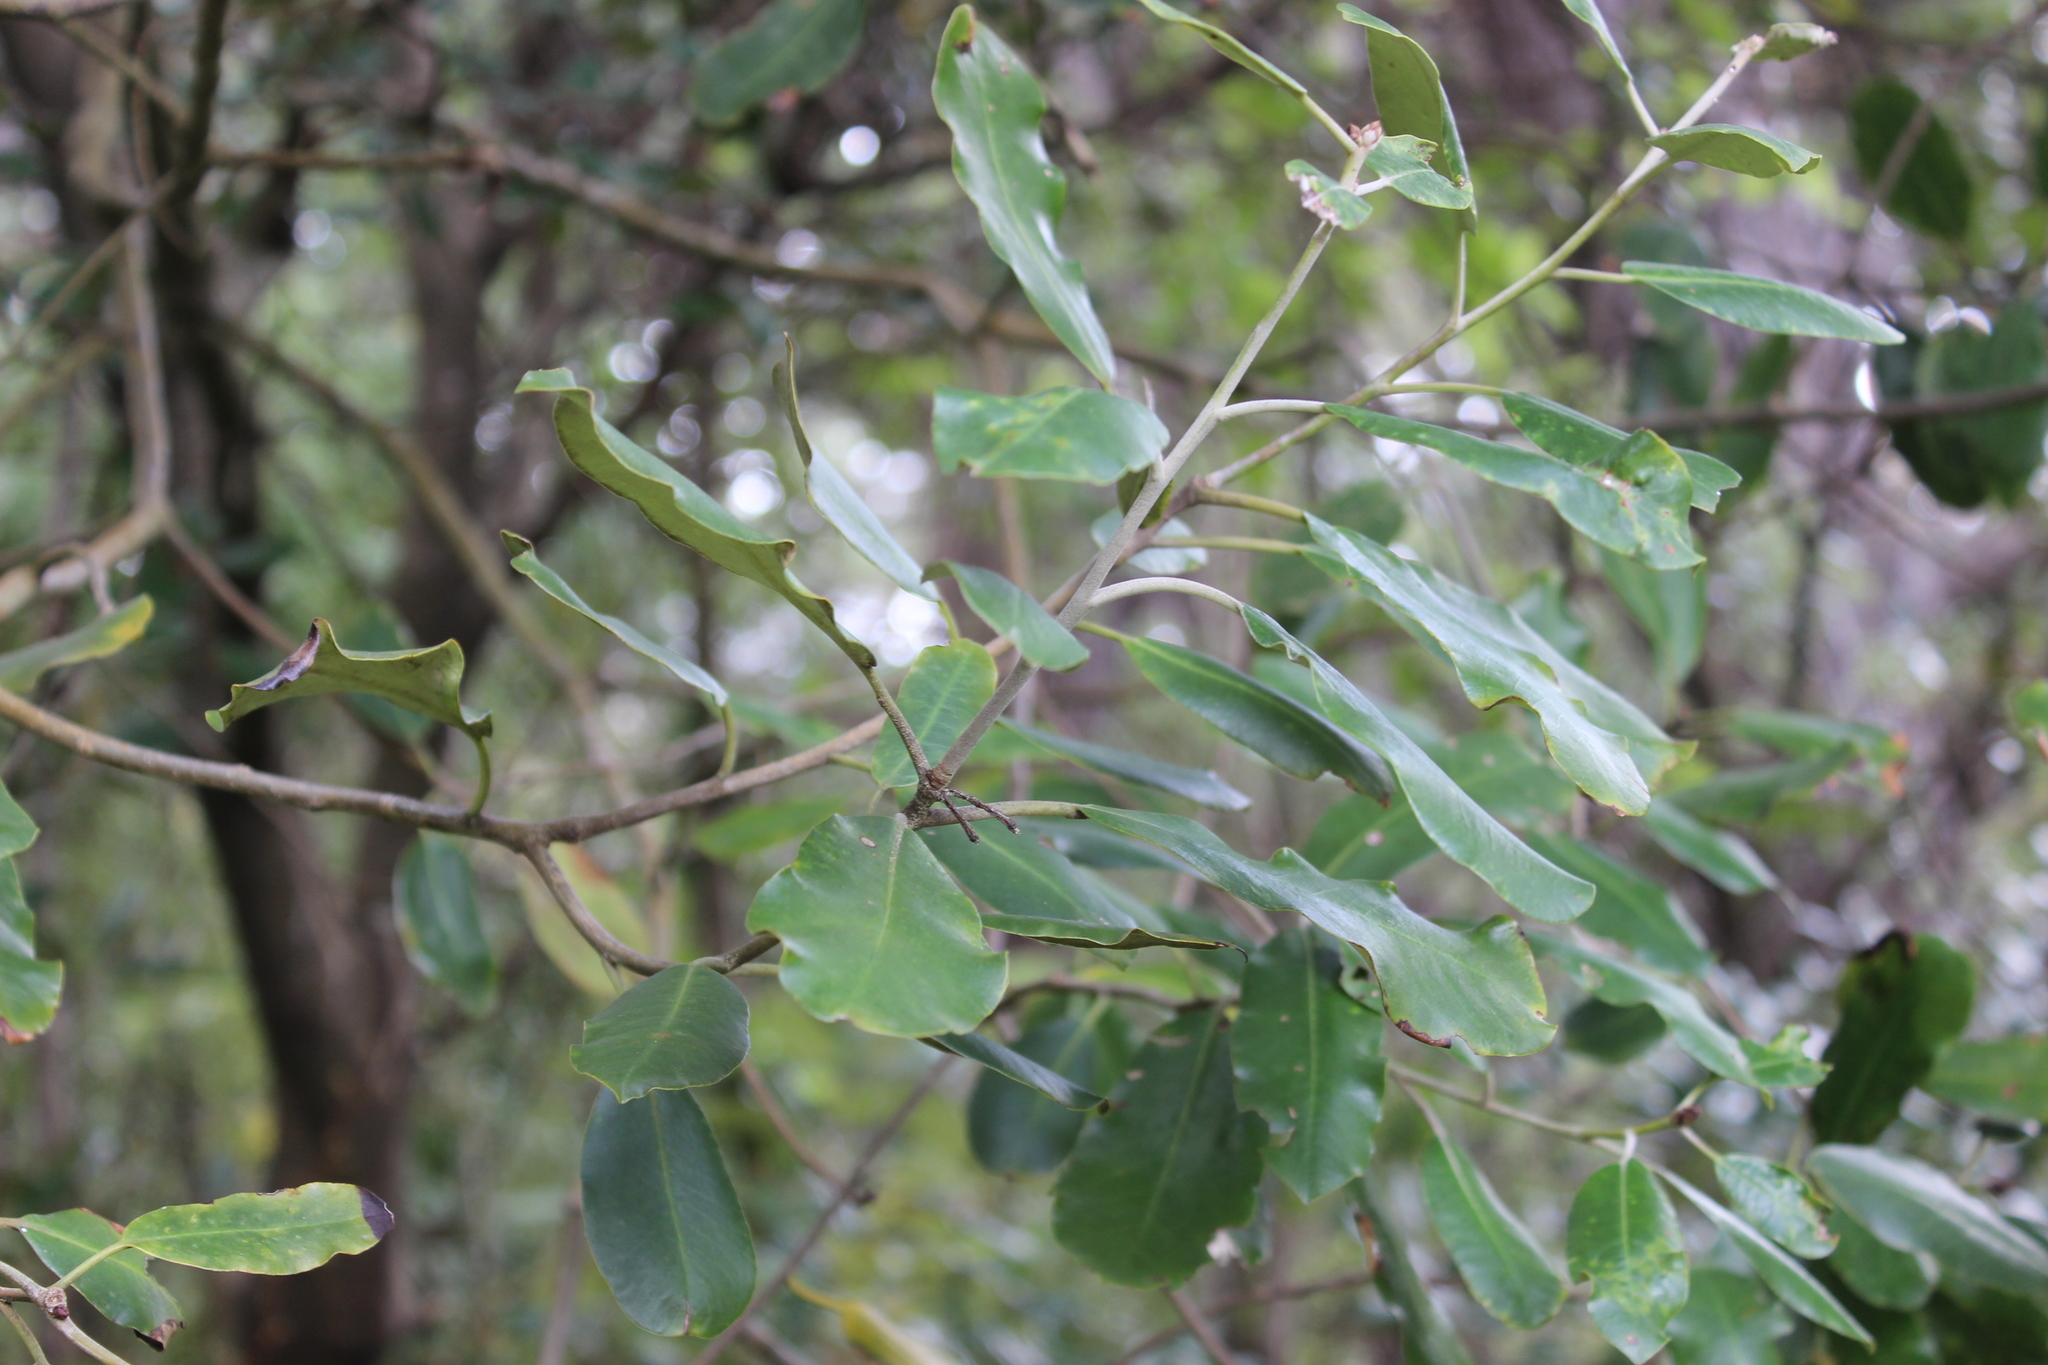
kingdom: Plantae
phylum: Tracheophyta
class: Magnoliopsida
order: Apiales
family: Pittosporaceae
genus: Pittosporum
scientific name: Pittosporum ralphii
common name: Ralph's desertwillow
